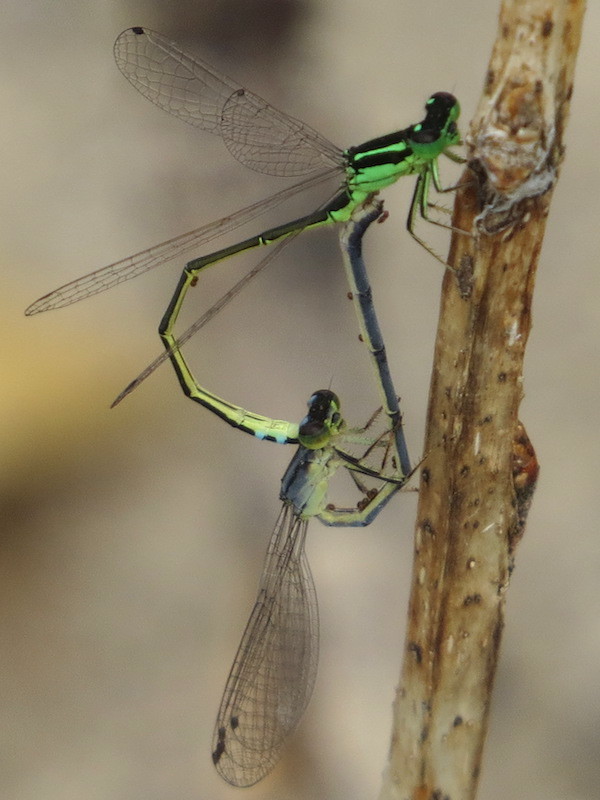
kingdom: Animalia
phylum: Arthropoda
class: Insecta
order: Odonata
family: Coenagrionidae
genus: Ischnura
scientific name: Ischnura verticalis
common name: Eastern forktail
